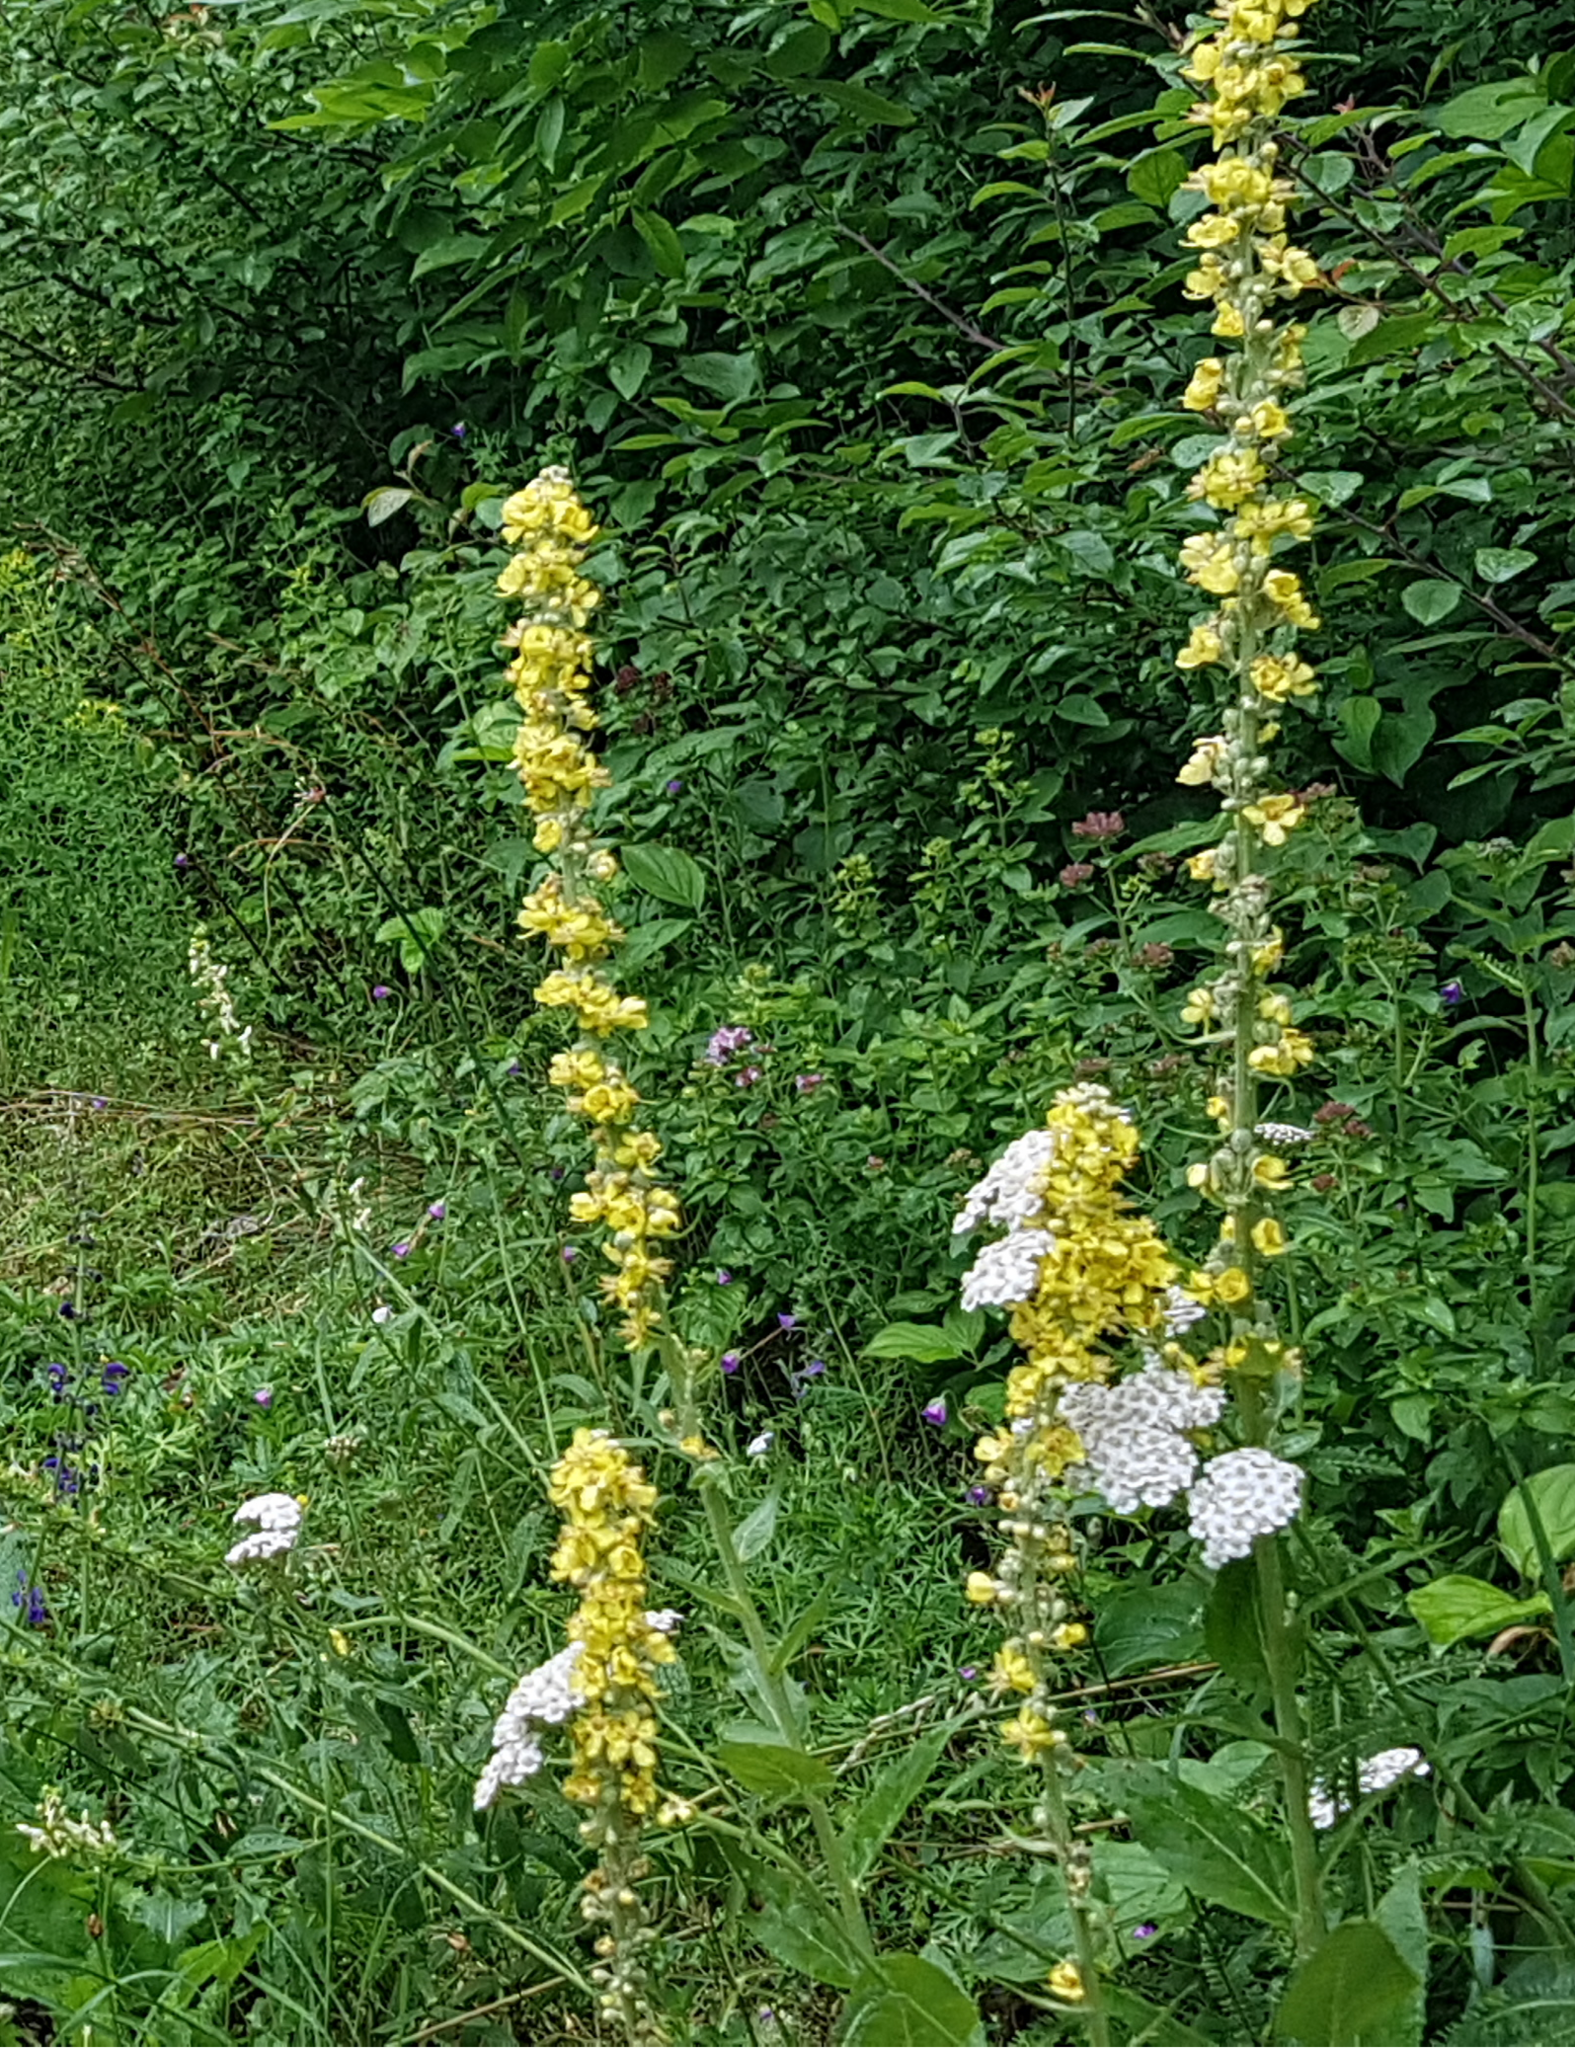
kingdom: Plantae
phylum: Tracheophyta
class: Magnoliopsida
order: Lamiales
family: Scrophulariaceae
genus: Verbascum
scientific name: Verbascum lychnitis
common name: White mullein
